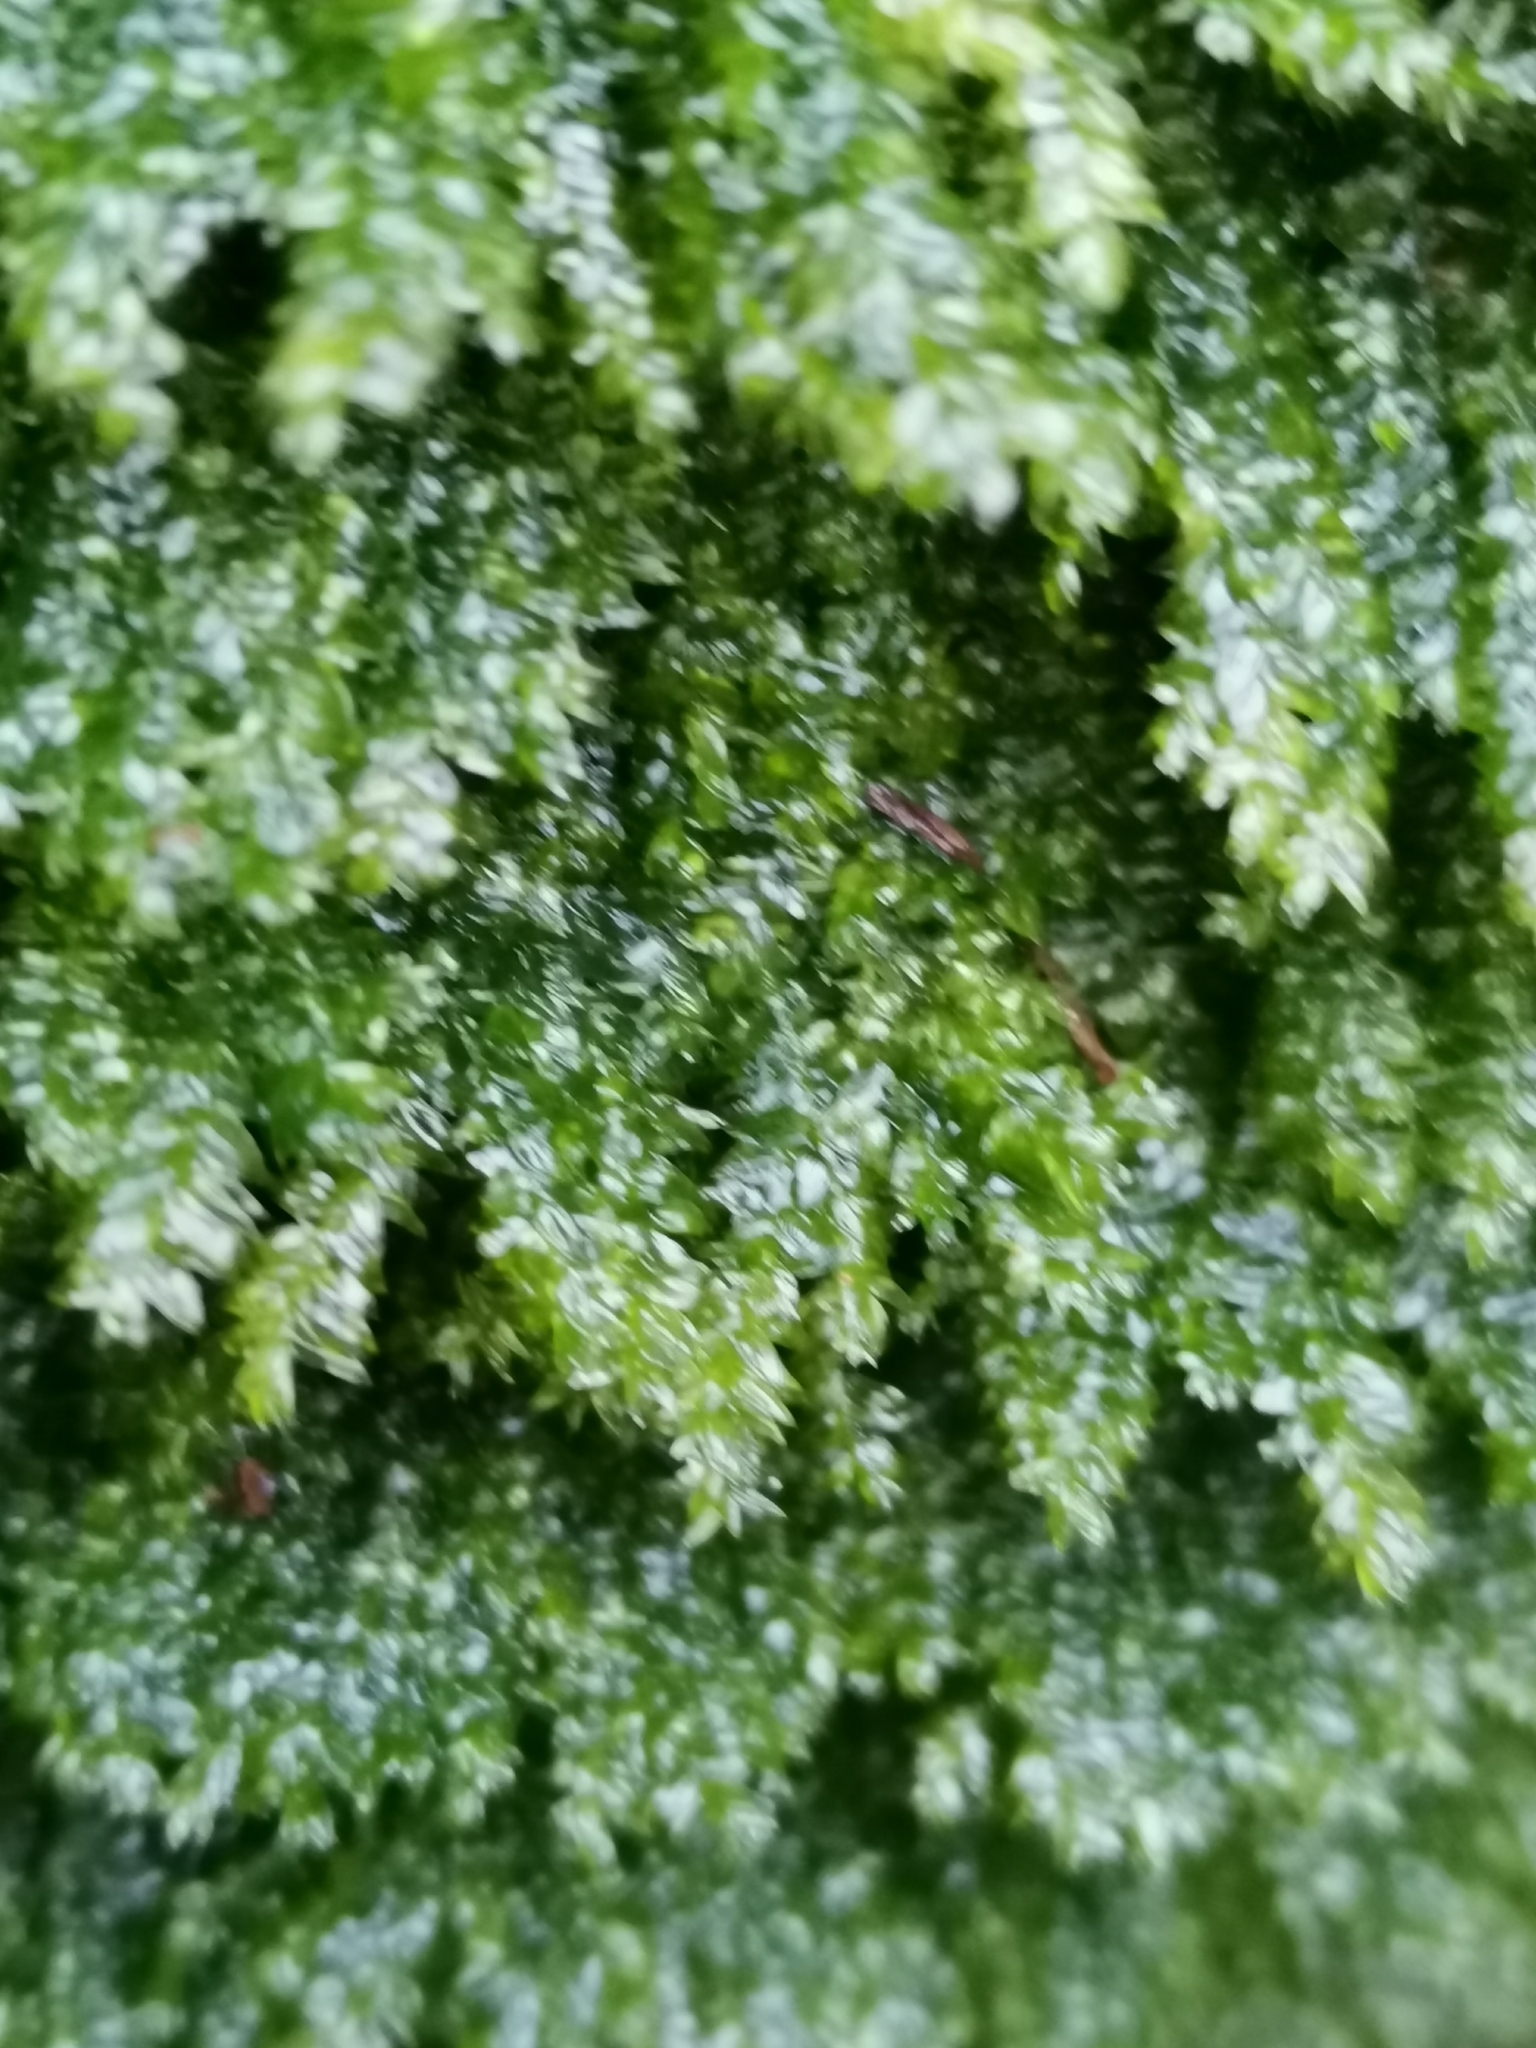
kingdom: Plantae
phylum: Bryophyta
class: Bryopsida
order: Hypnales
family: Plagiotheciaceae
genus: Plagiothecium
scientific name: Plagiothecium laetum
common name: Bright silk moss
